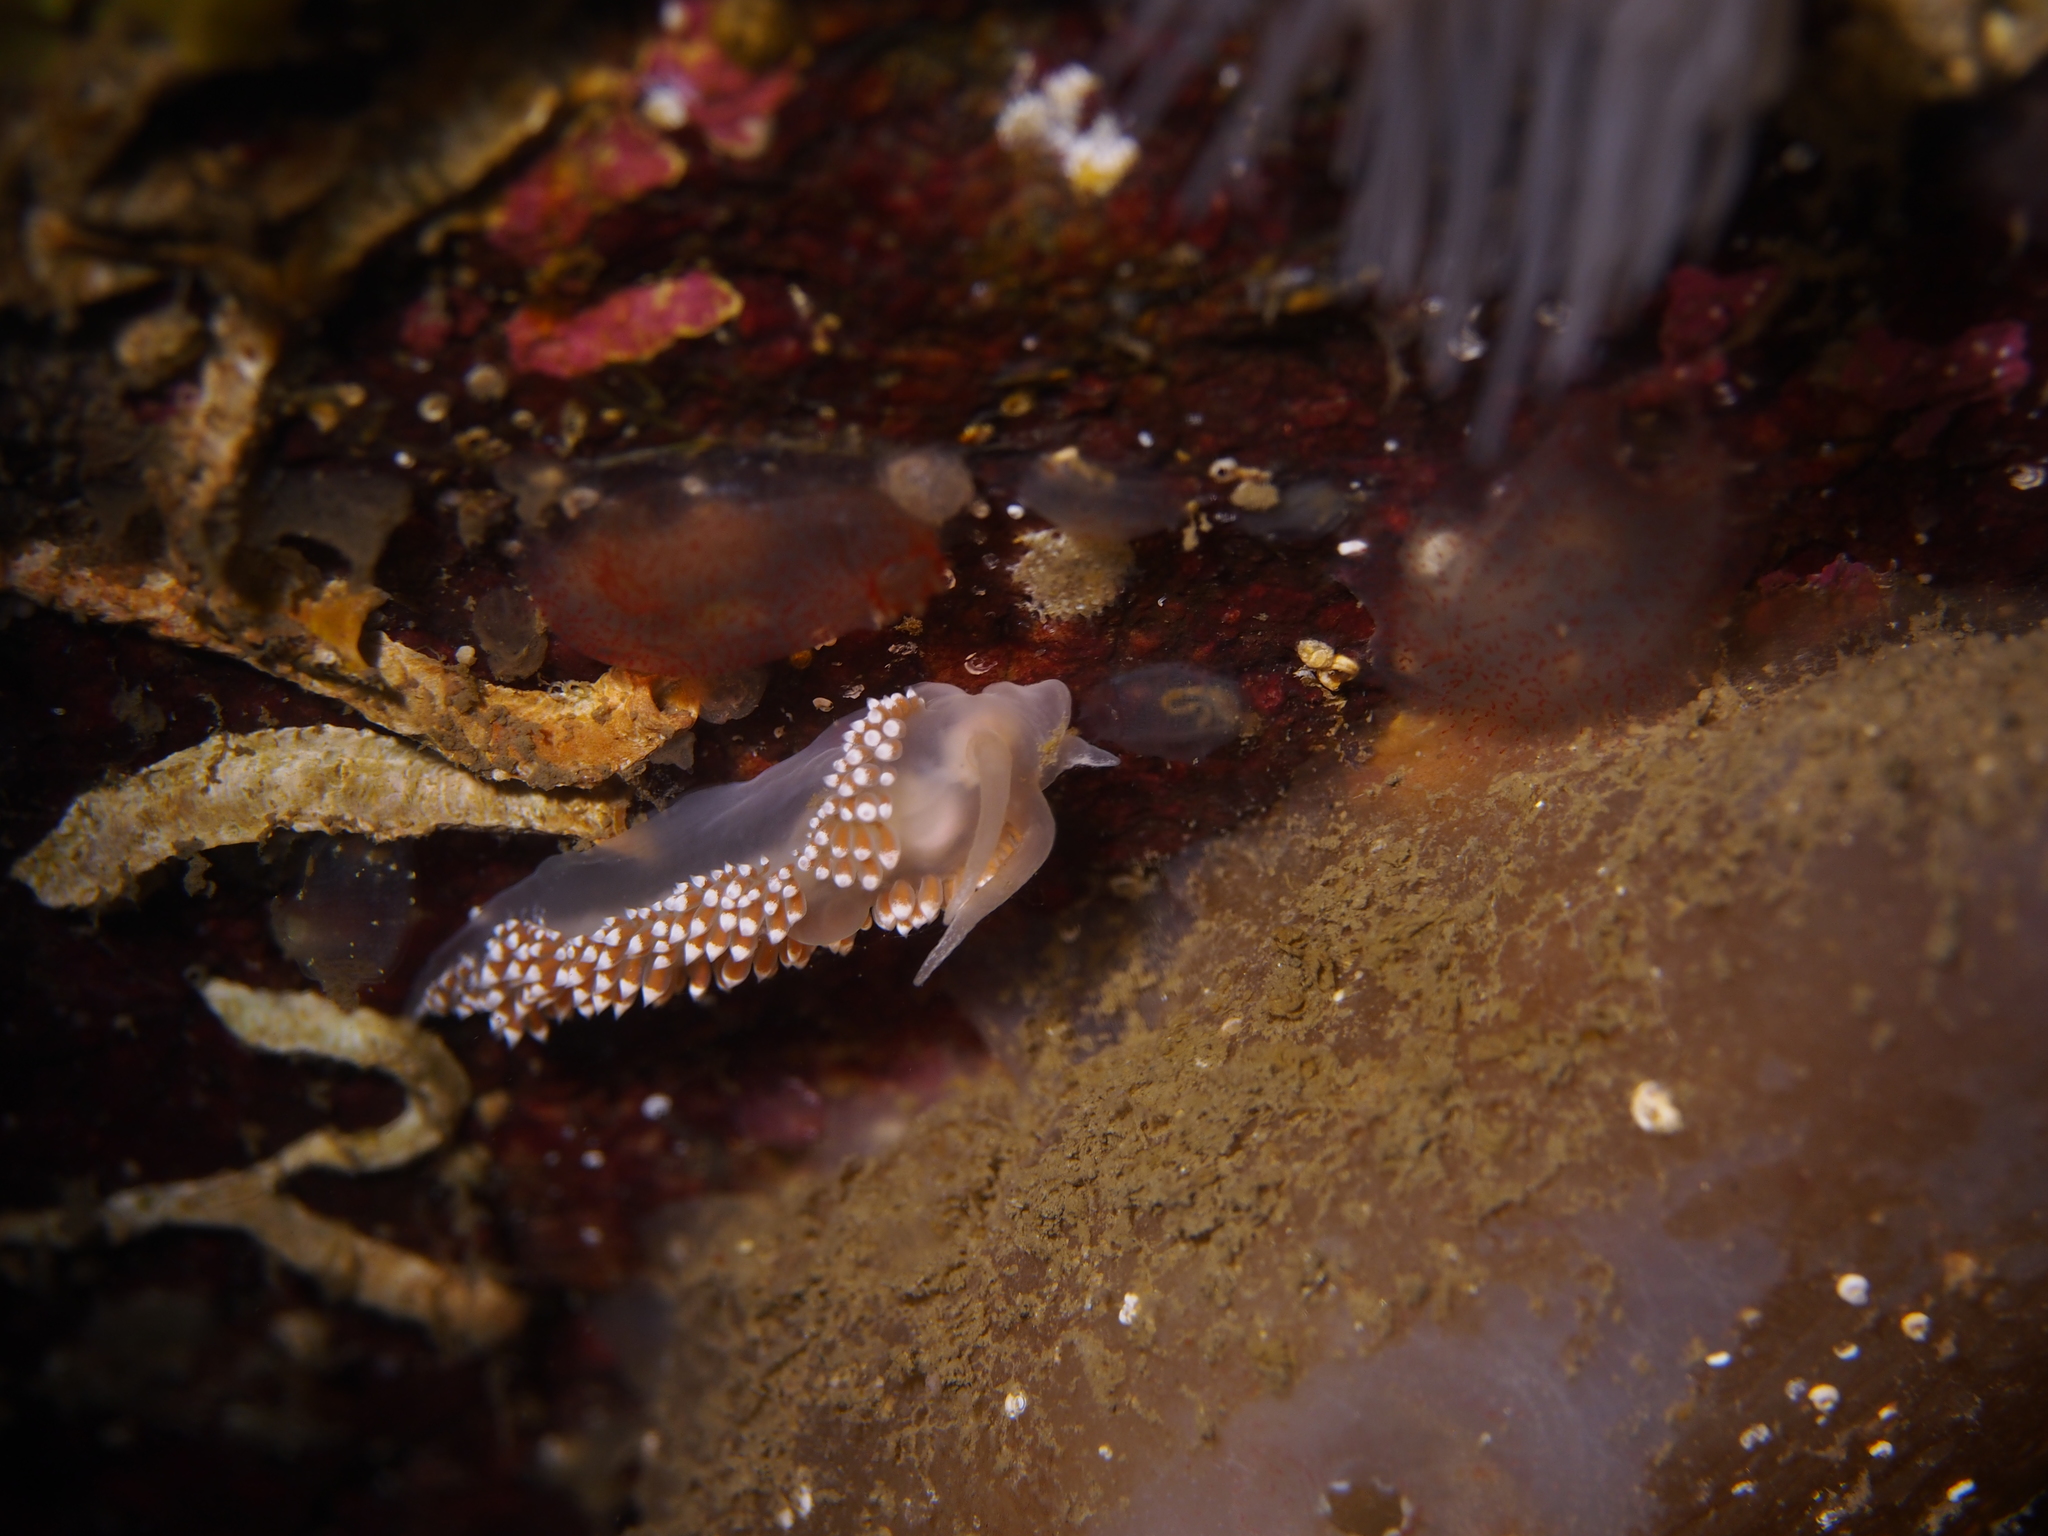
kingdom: Animalia
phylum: Mollusca
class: Gastropoda
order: Nudibranchia
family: Coryphellidae
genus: Coryphella
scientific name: Coryphella verrucosa
